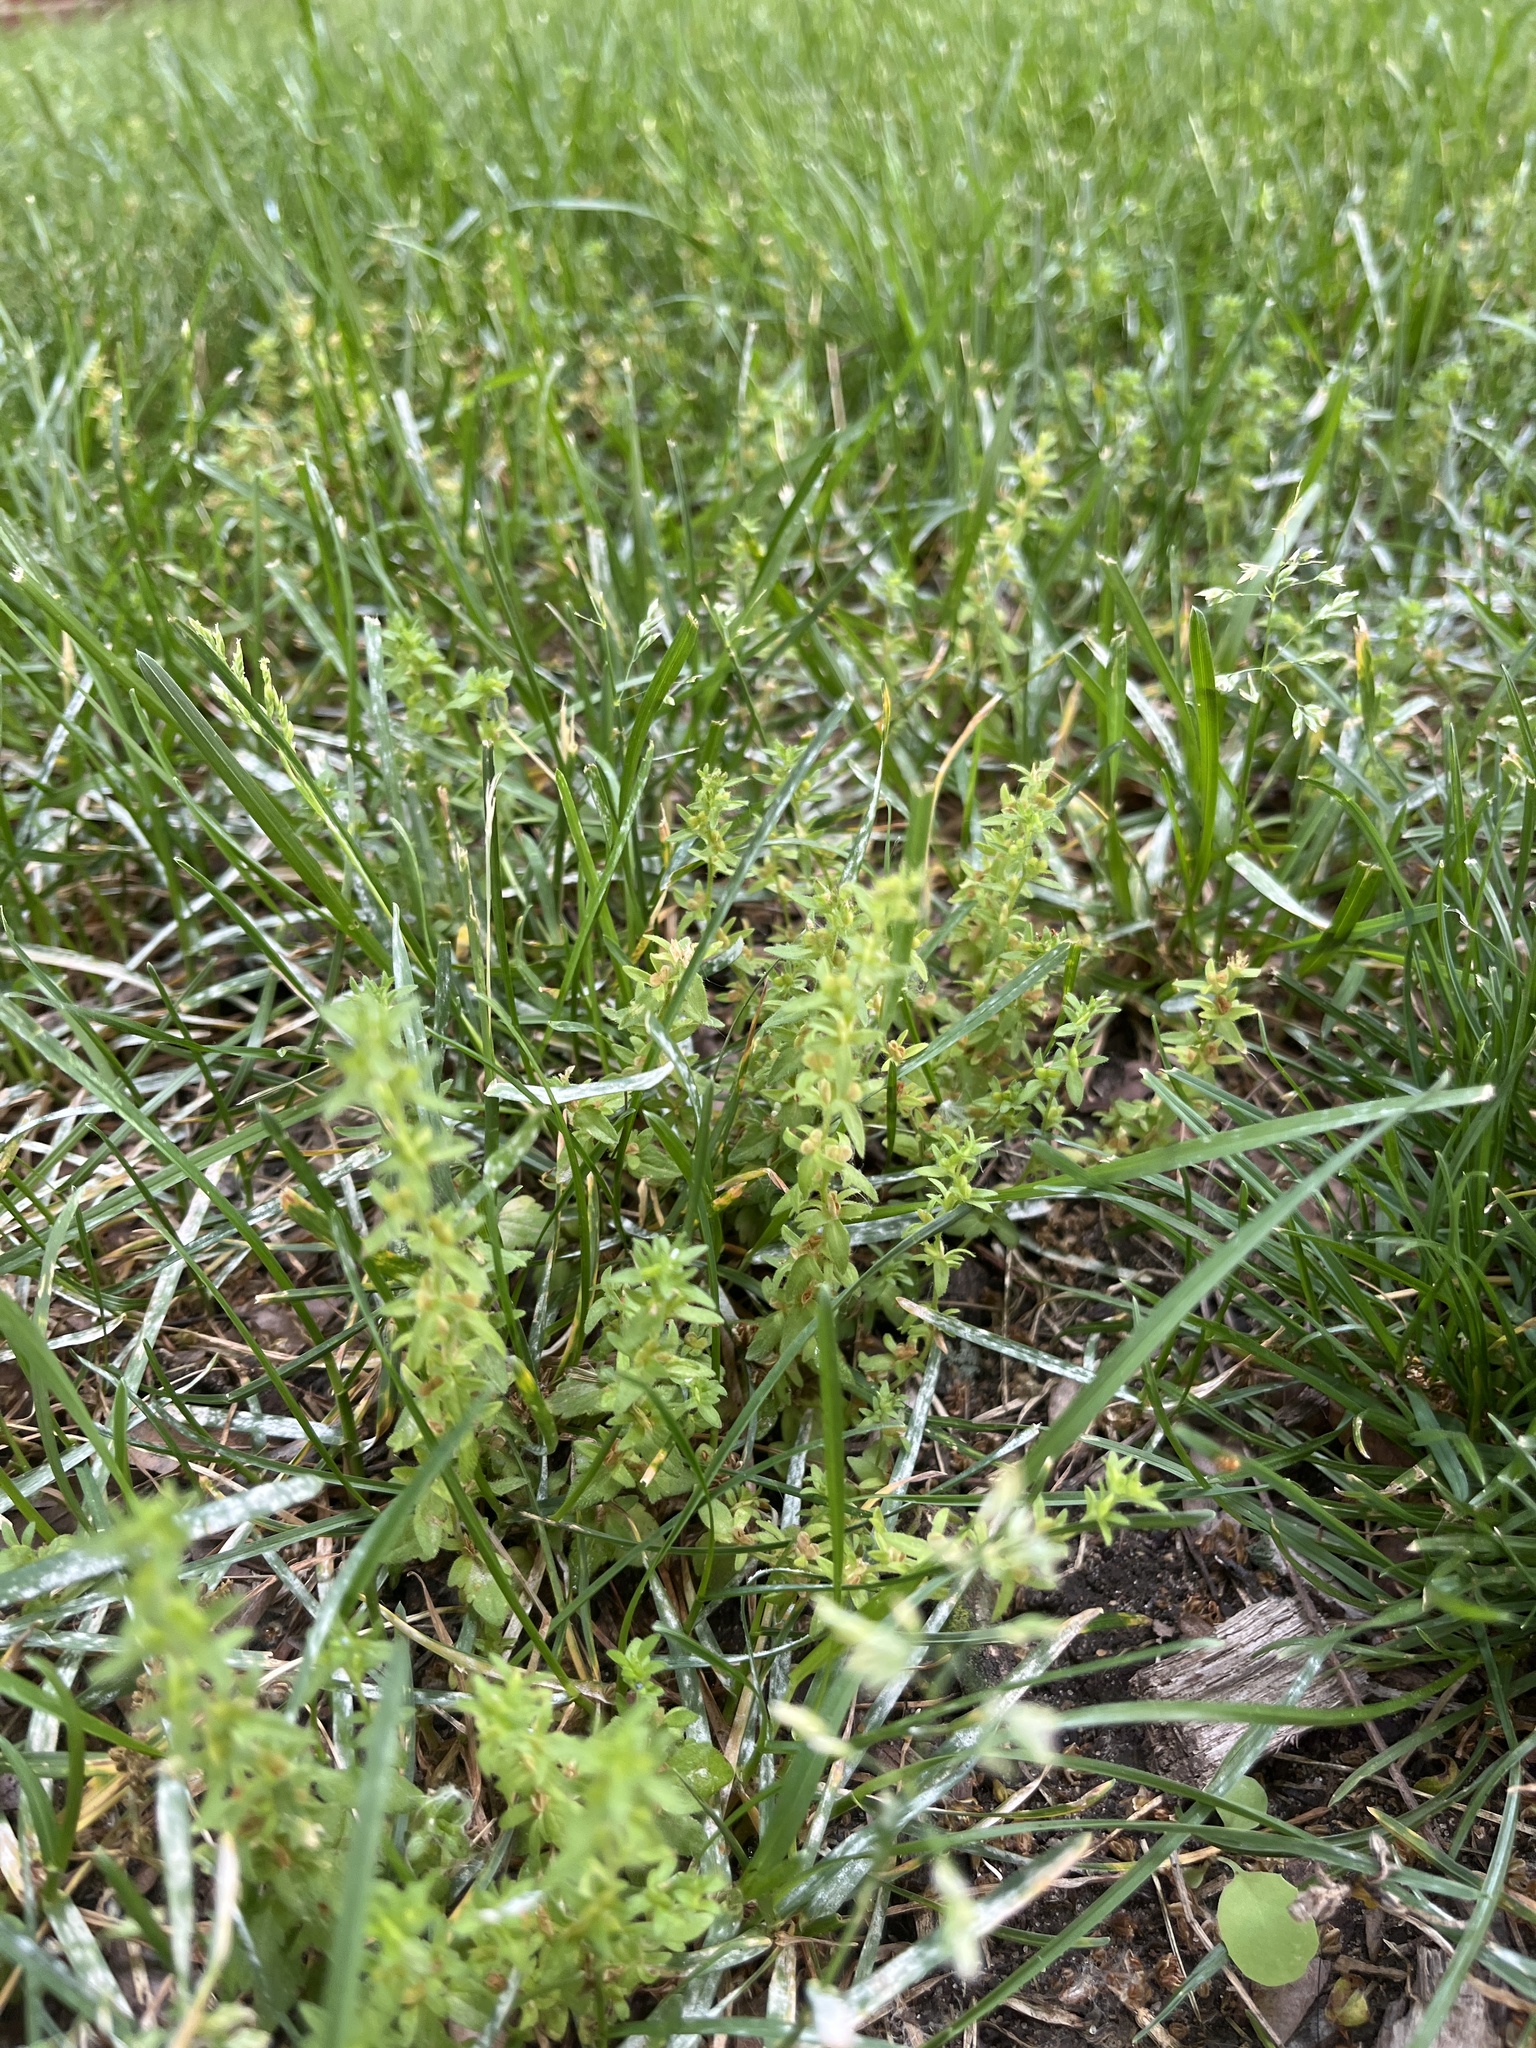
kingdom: Plantae
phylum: Tracheophyta
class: Magnoliopsida
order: Lamiales
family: Plantaginaceae
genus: Veronica
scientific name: Veronica arvensis
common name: Corn speedwell
